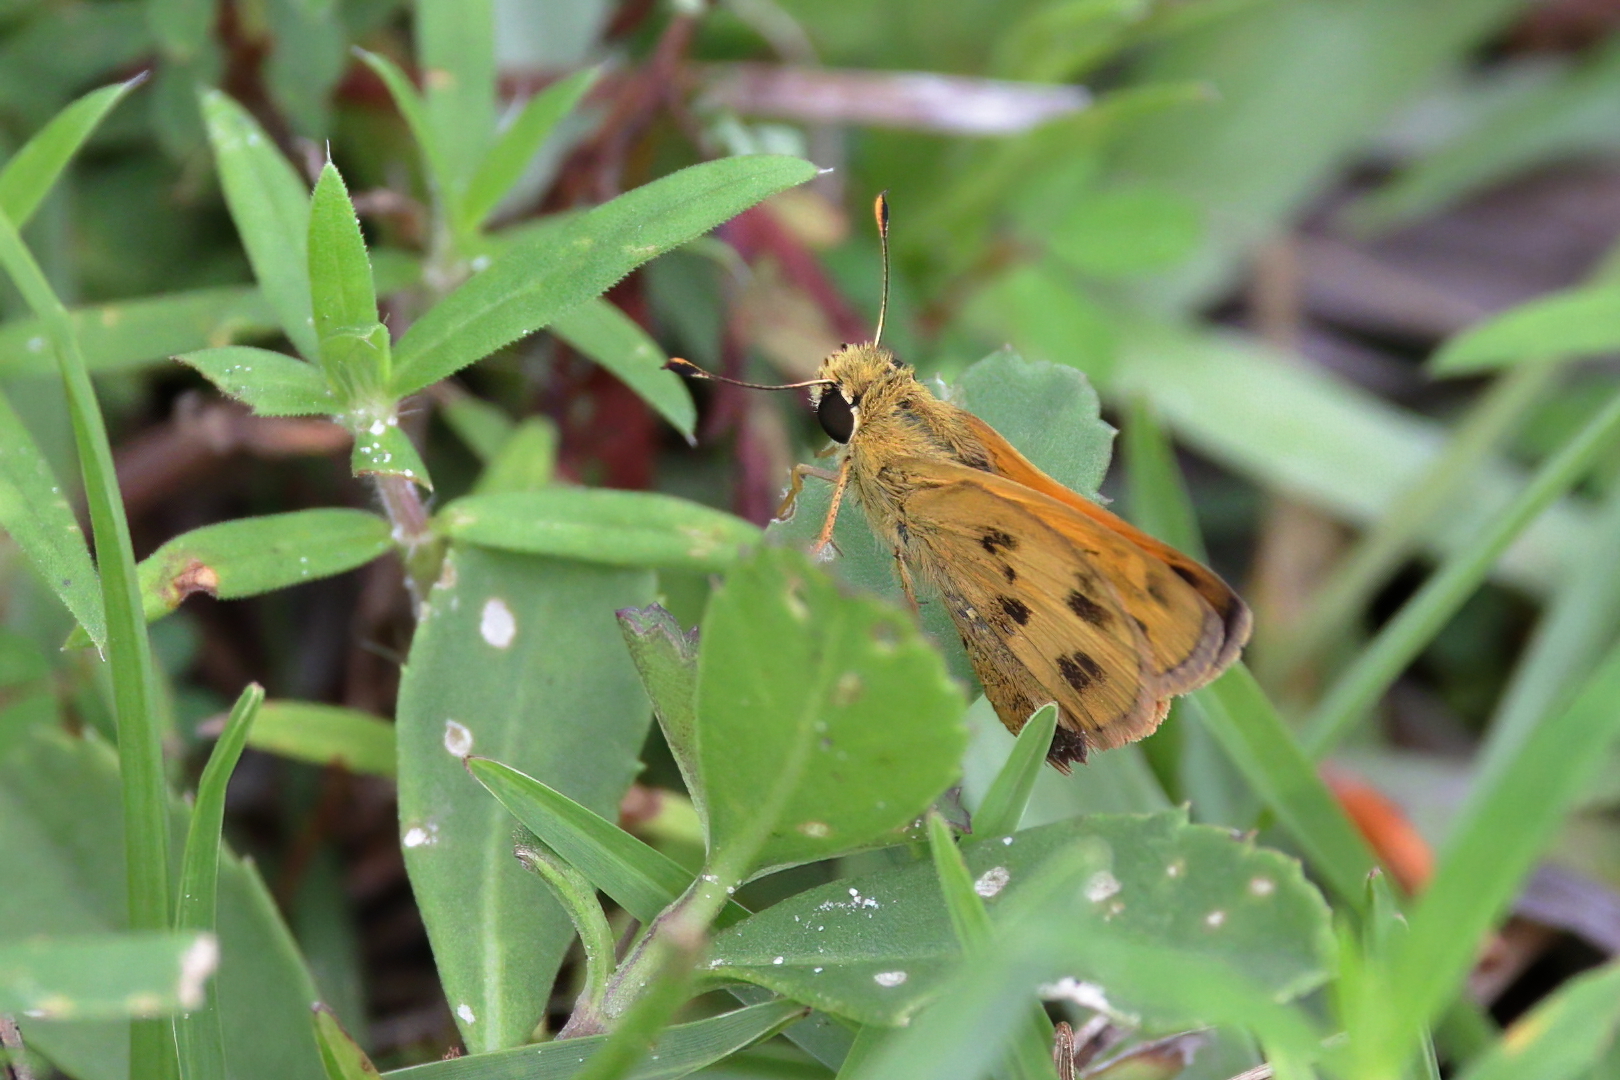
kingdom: Animalia
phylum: Arthropoda
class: Insecta
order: Lepidoptera
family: Hesperiidae
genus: Polites
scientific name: Polites vibex
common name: Whirlabout
